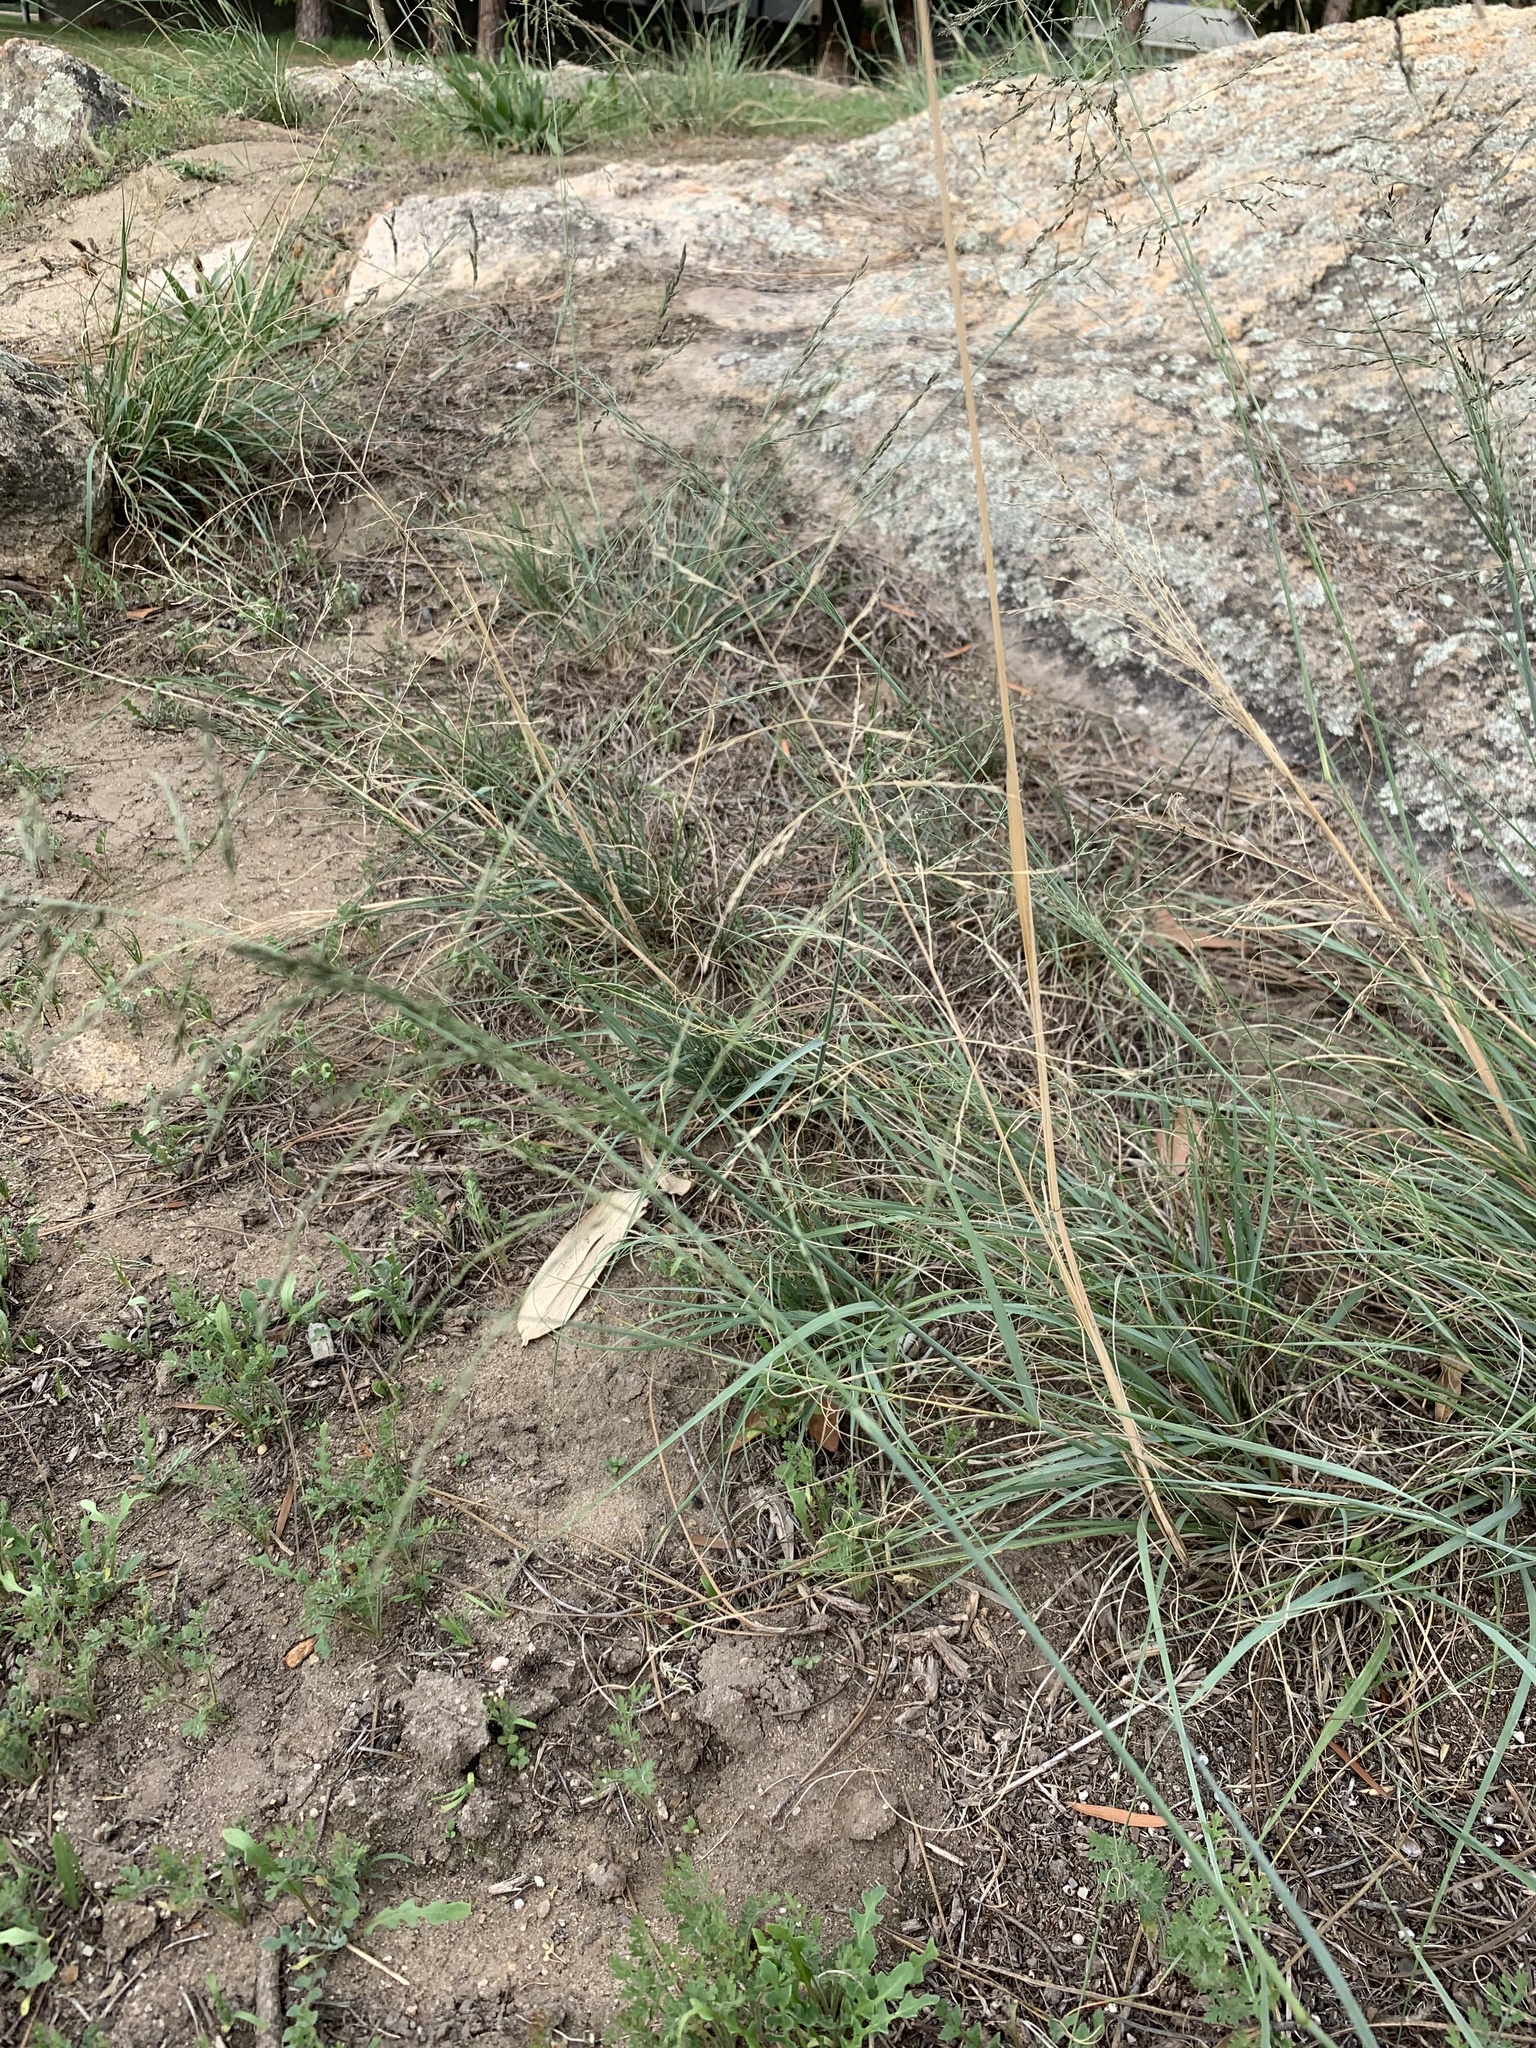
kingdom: Plantae
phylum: Tracheophyta
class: Liliopsida
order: Poales
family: Poaceae
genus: Eragrostis
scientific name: Eragrostis curvula
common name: African love-grass
